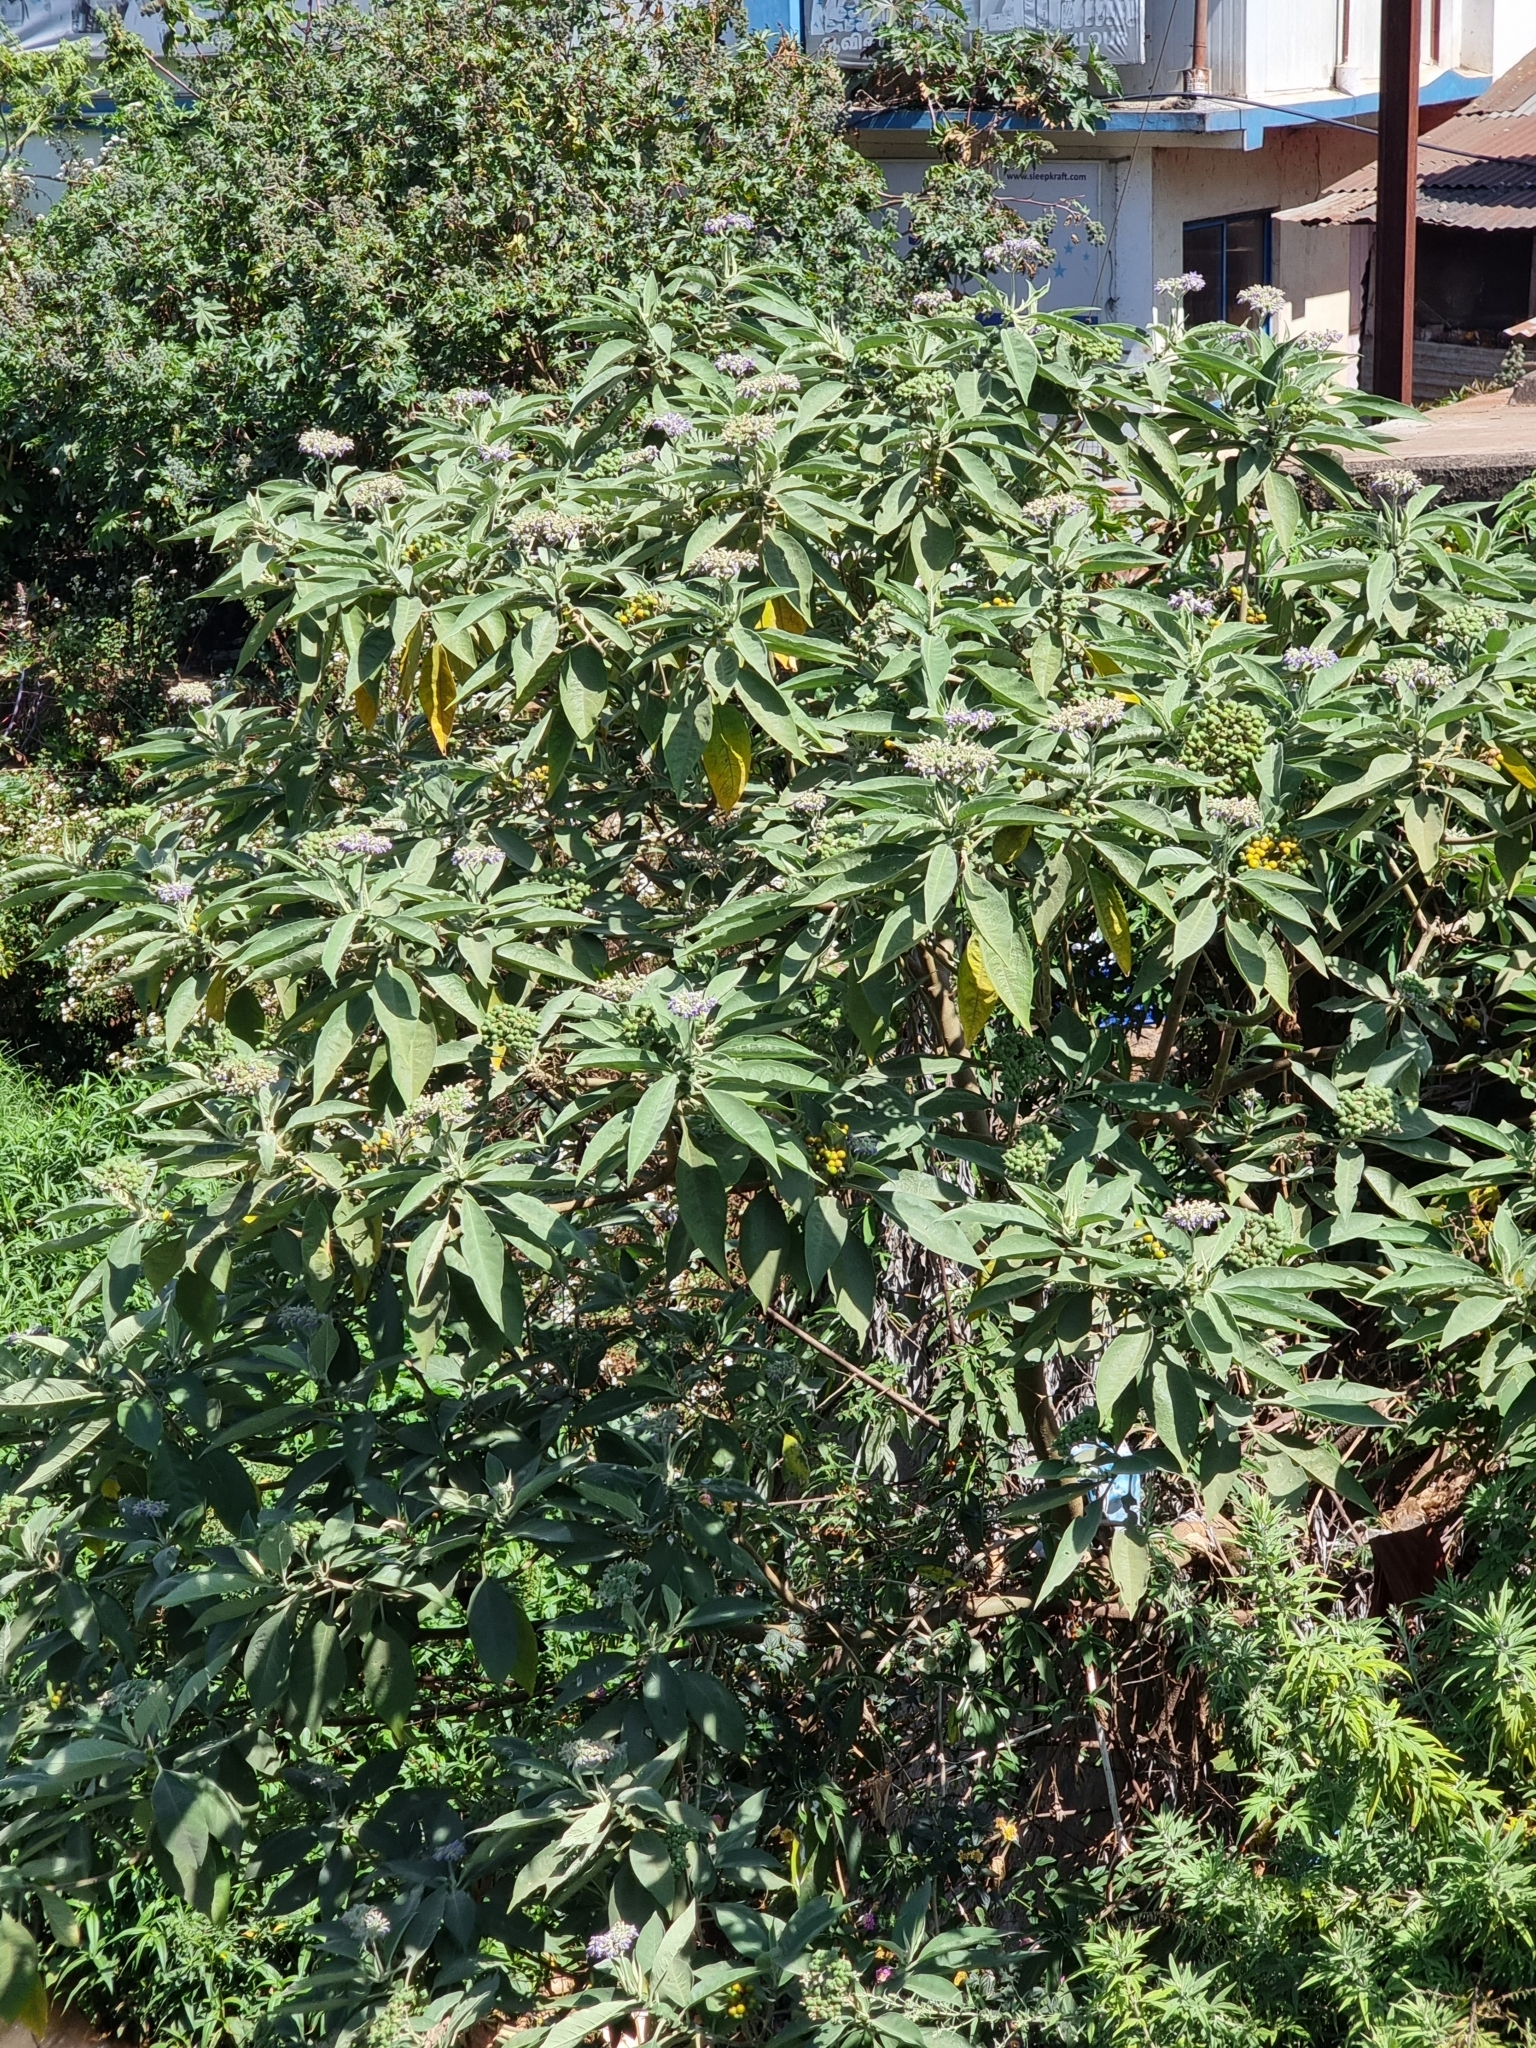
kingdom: Plantae
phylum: Tracheophyta
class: Magnoliopsida
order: Solanales
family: Solanaceae
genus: Solanum
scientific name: Solanum mauritianum
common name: Earleaf nightshade
